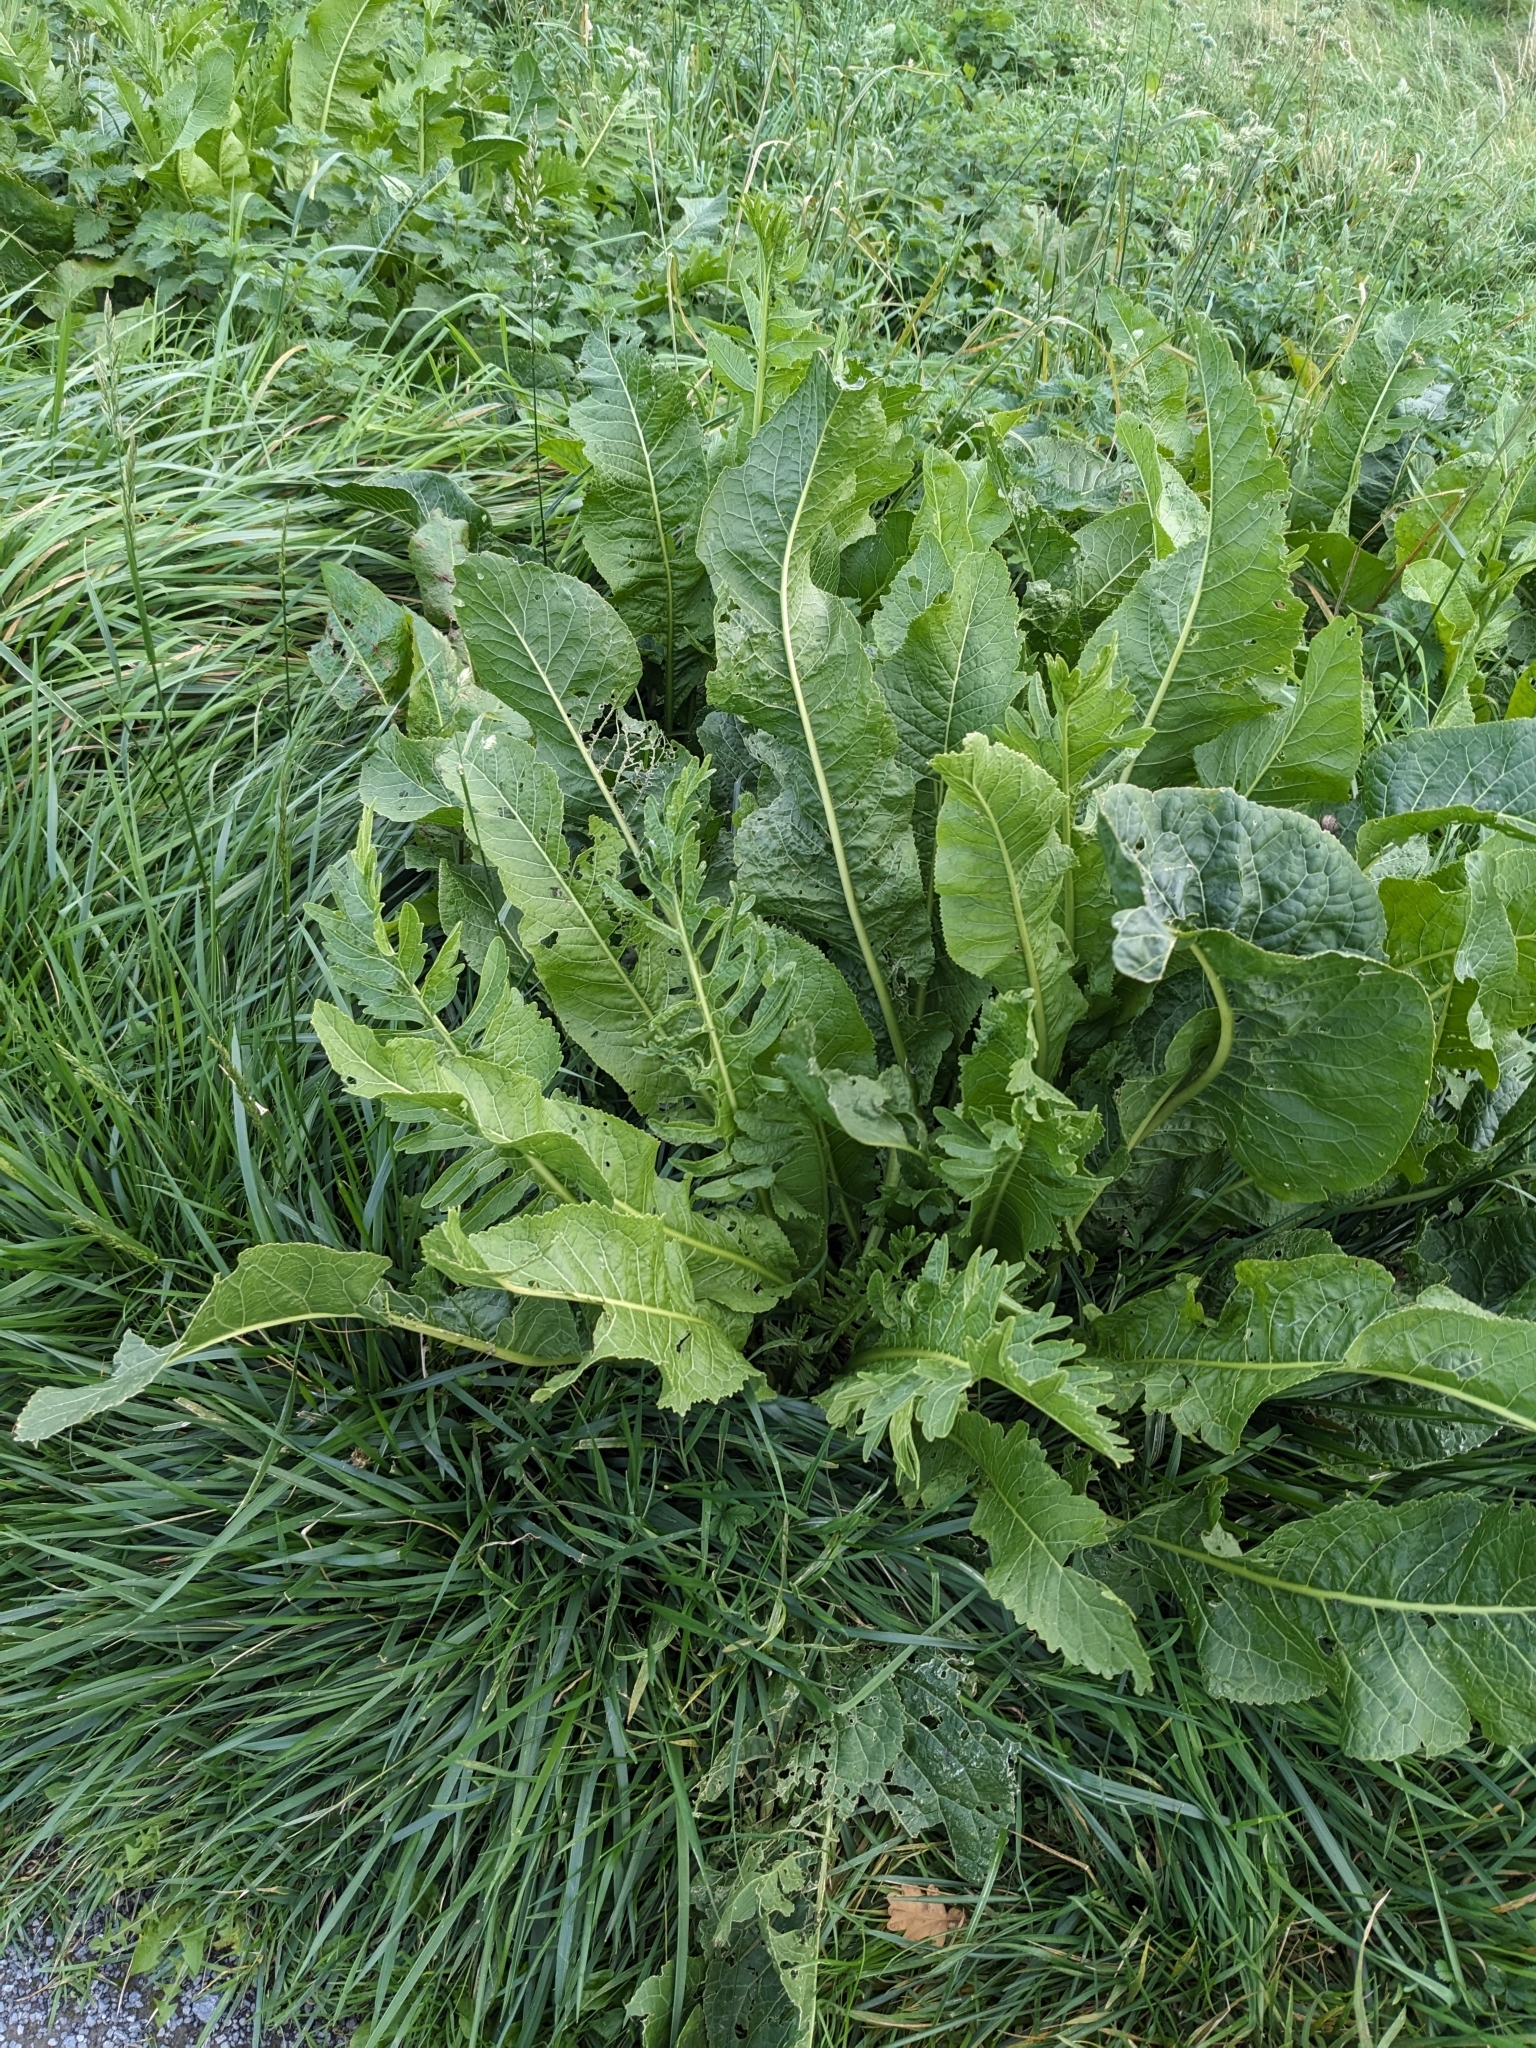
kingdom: Plantae
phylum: Tracheophyta
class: Magnoliopsida
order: Brassicales
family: Brassicaceae
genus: Armoracia
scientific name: Armoracia rusticana
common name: Horseradish
